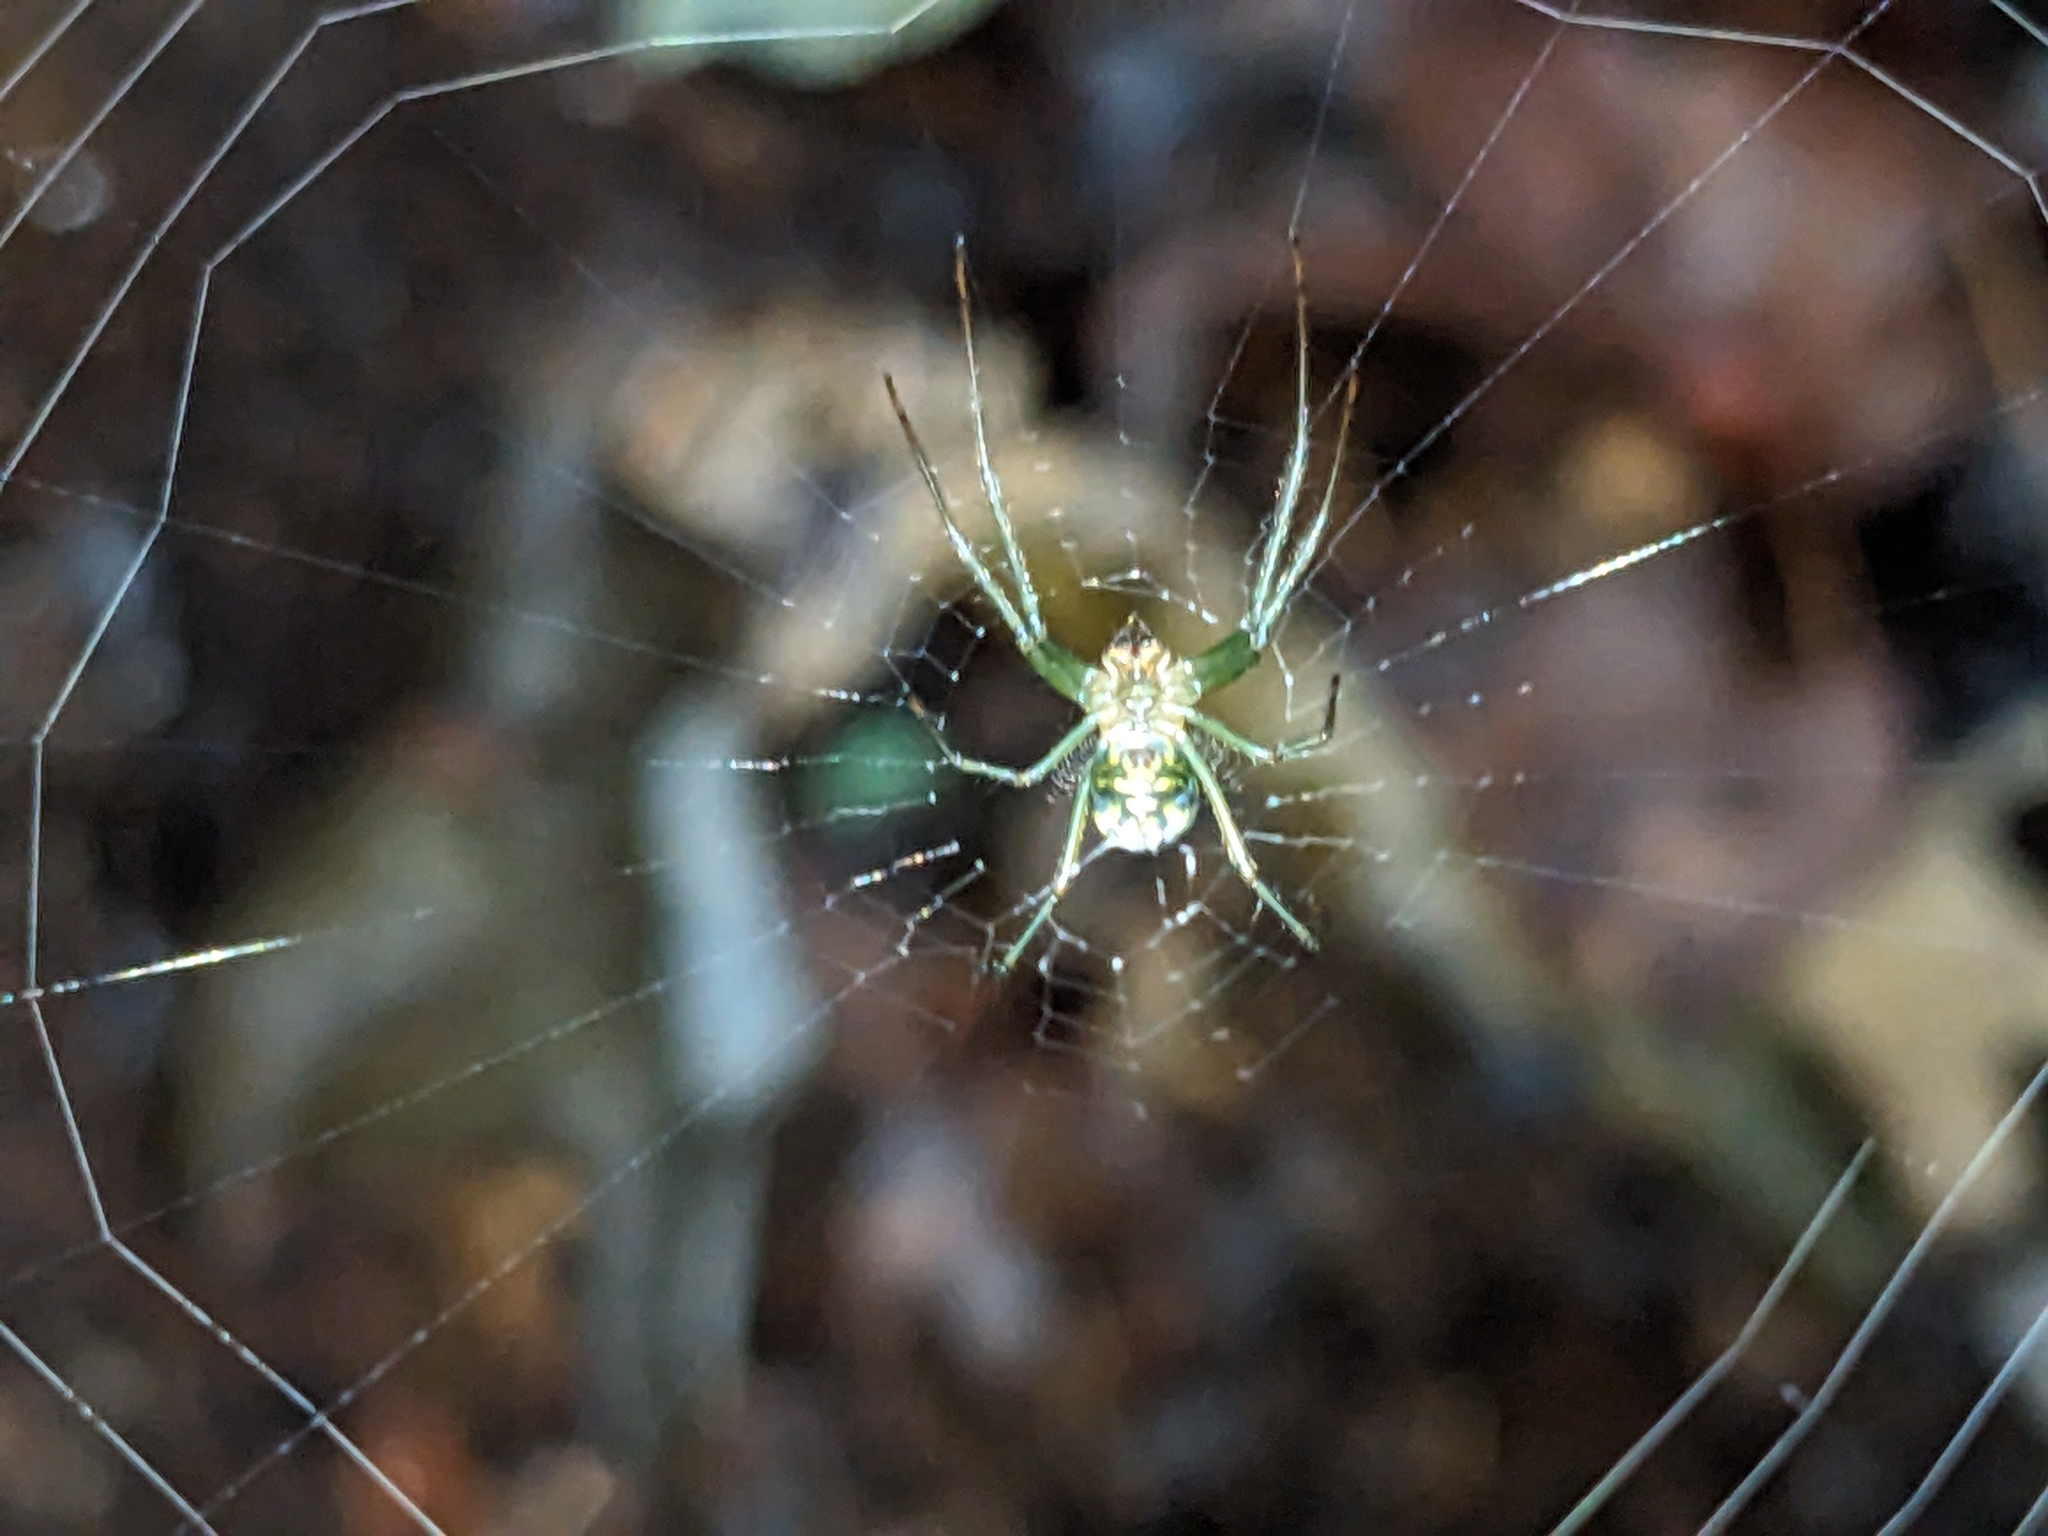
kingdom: Animalia
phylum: Arthropoda
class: Arachnida
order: Araneae
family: Tetragnathidae
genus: Leucauge
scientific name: Leucauge venusta
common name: Longjawed orb weavers
